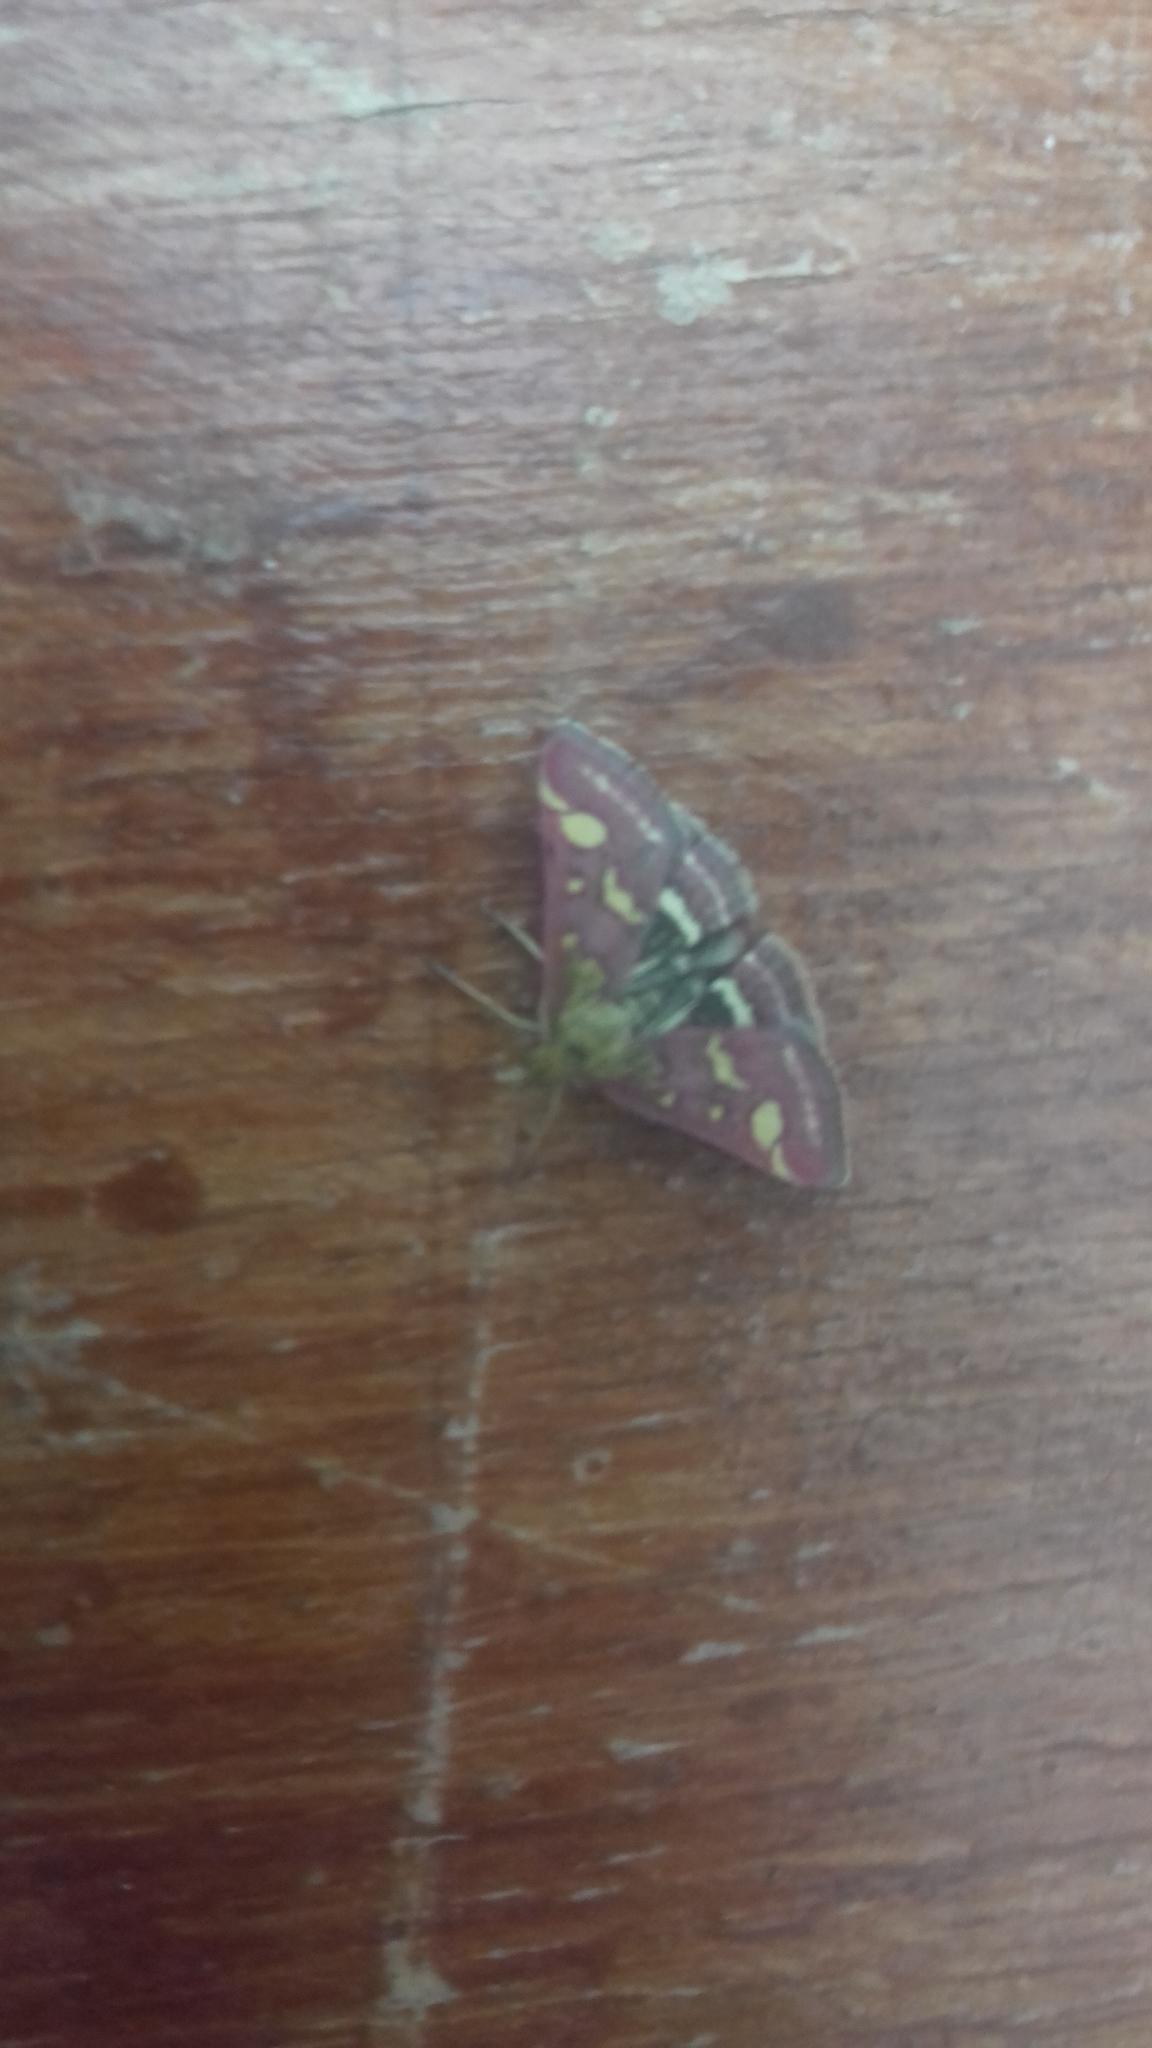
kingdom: Animalia
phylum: Arthropoda
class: Insecta
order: Lepidoptera
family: Crambidae
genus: Pyrausta
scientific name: Pyrausta purpuralis
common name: Common purple & gold
